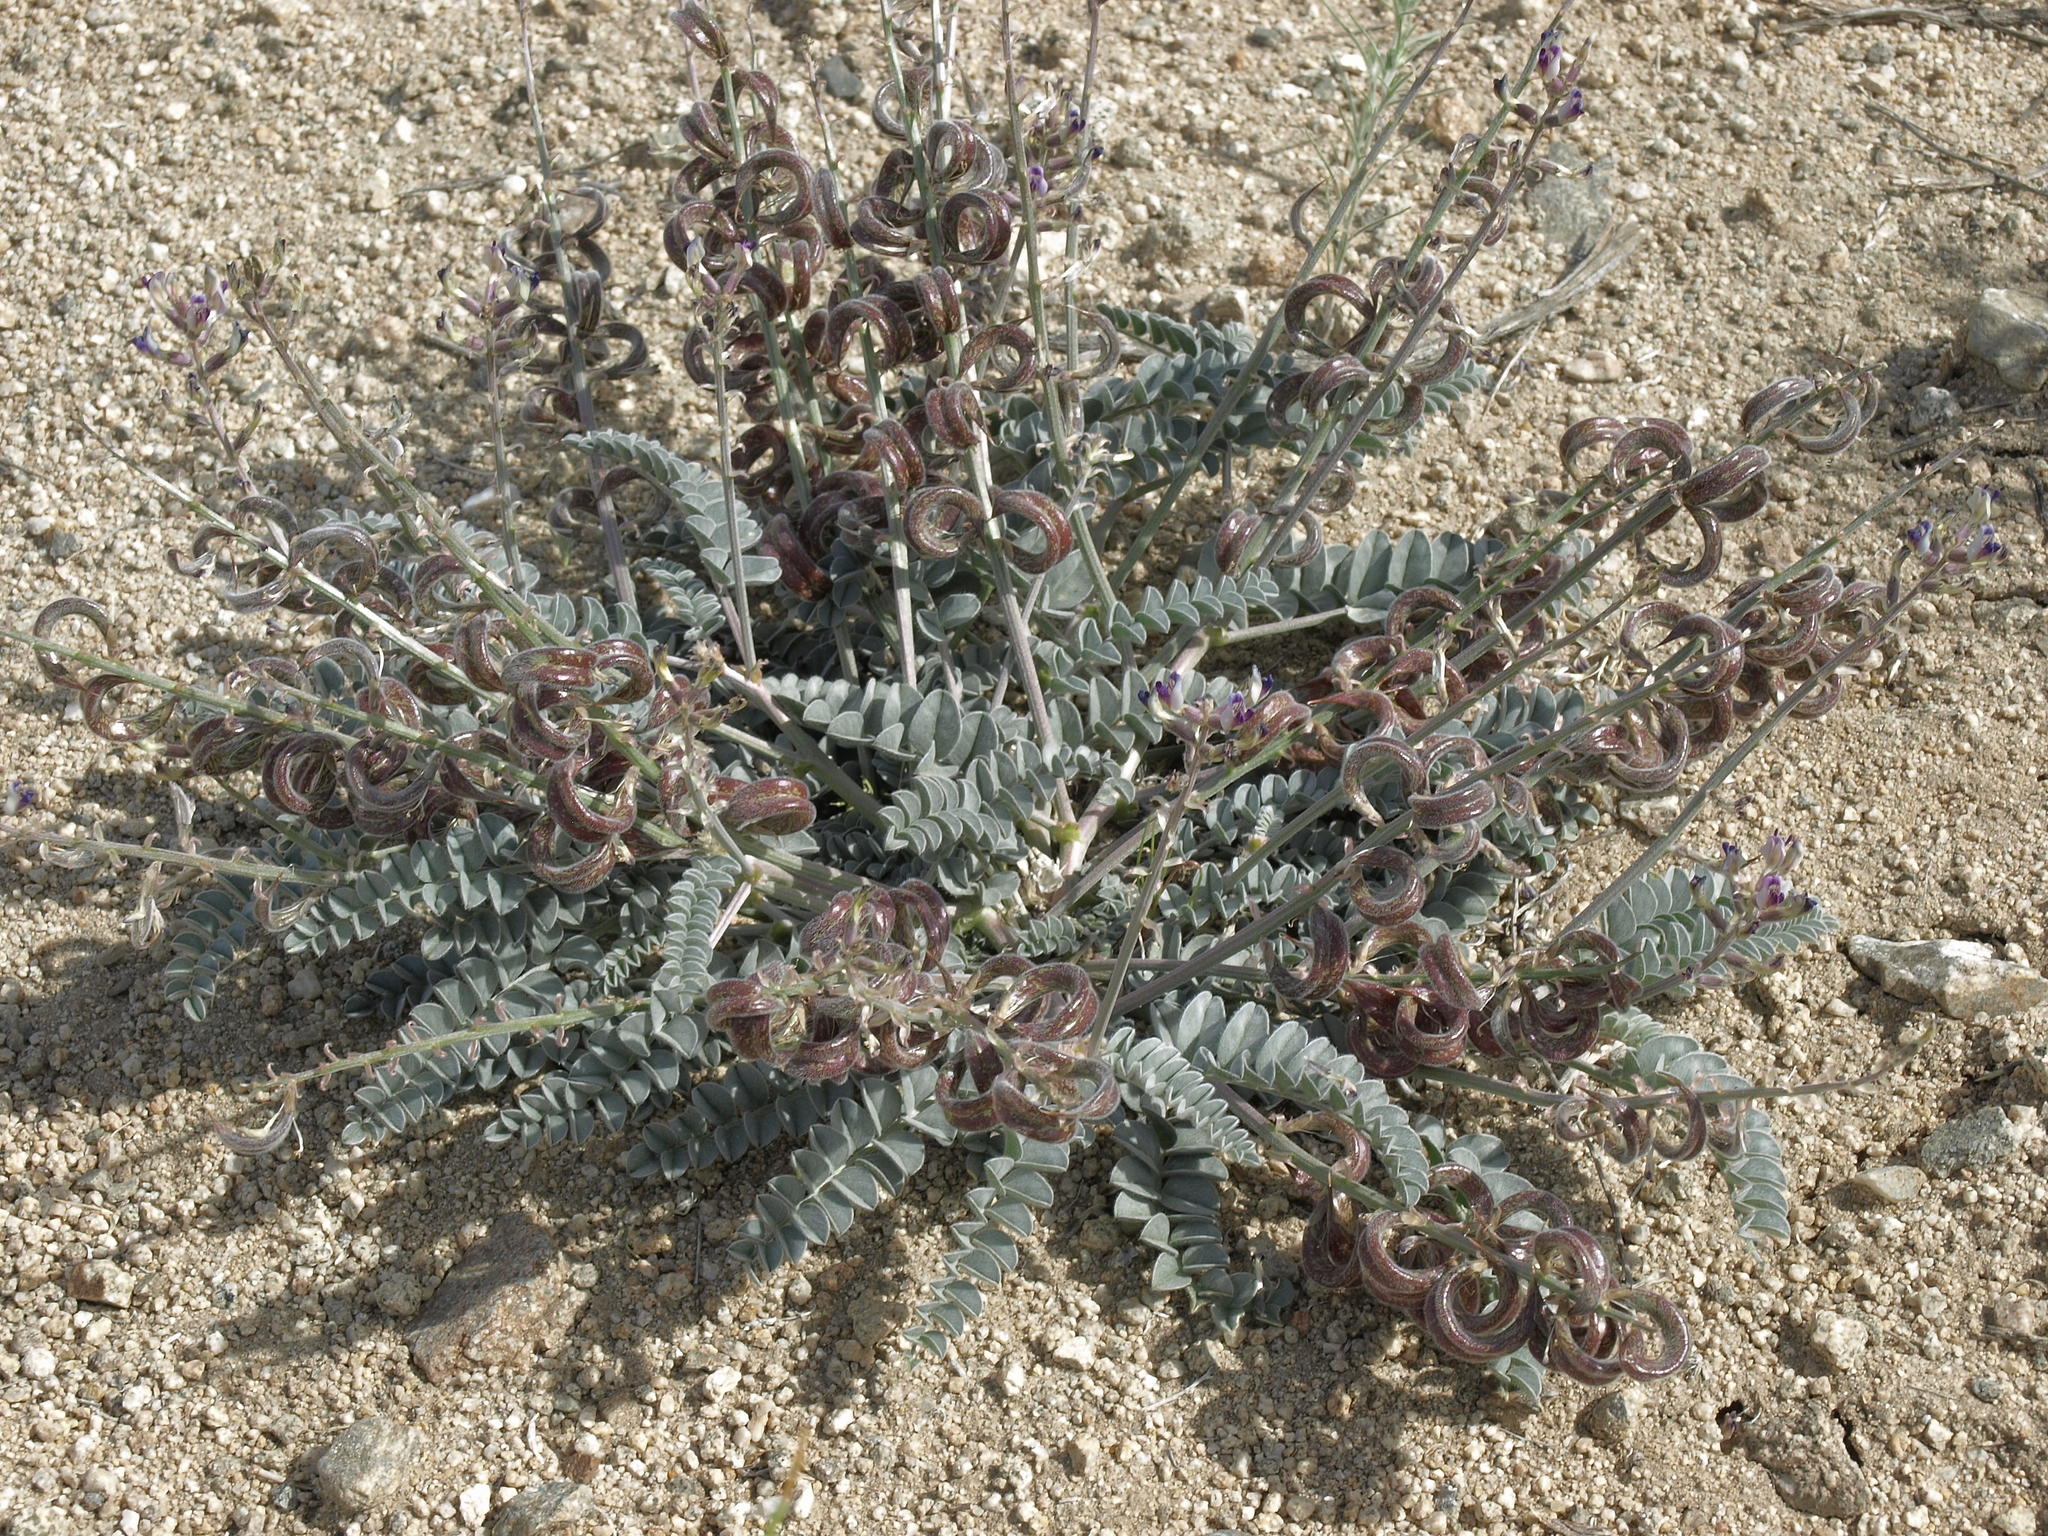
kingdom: Plantae
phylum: Tracheophyta
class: Magnoliopsida
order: Fabales
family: Fabaceae
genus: Astragalus
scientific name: Astragalus layneae
